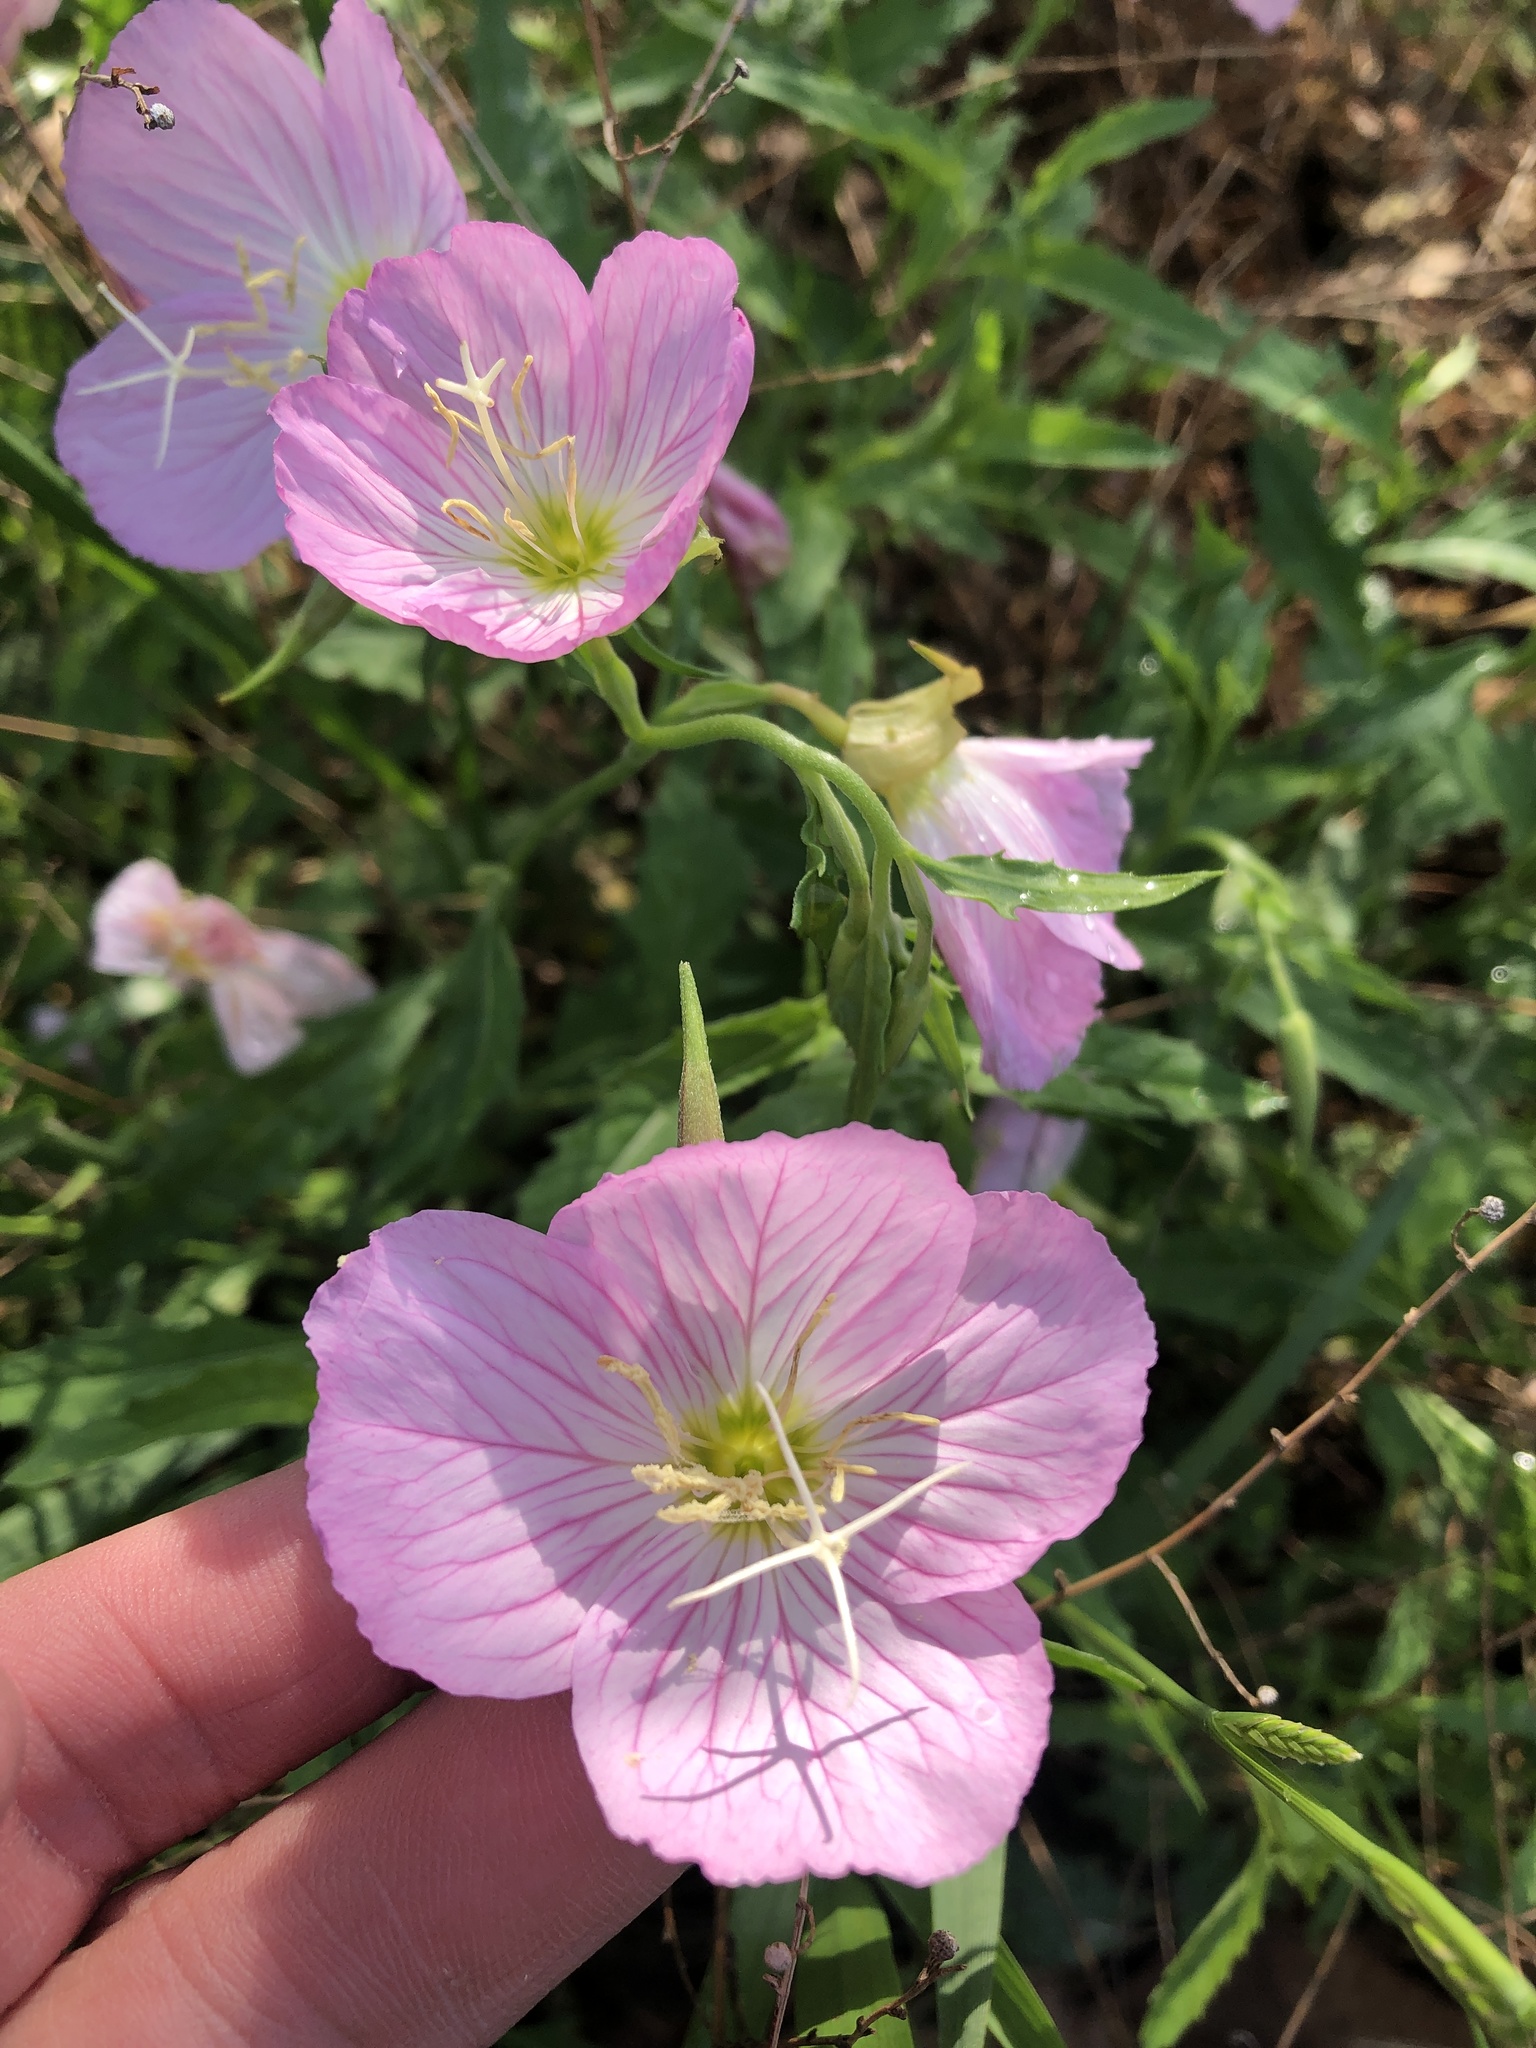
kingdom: Plantae
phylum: Tracheophyta
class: Magnoliopsida
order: Myrtales
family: Onagraceae
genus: Oenothera
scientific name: Oenothera speciosa
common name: White evening-primrose
